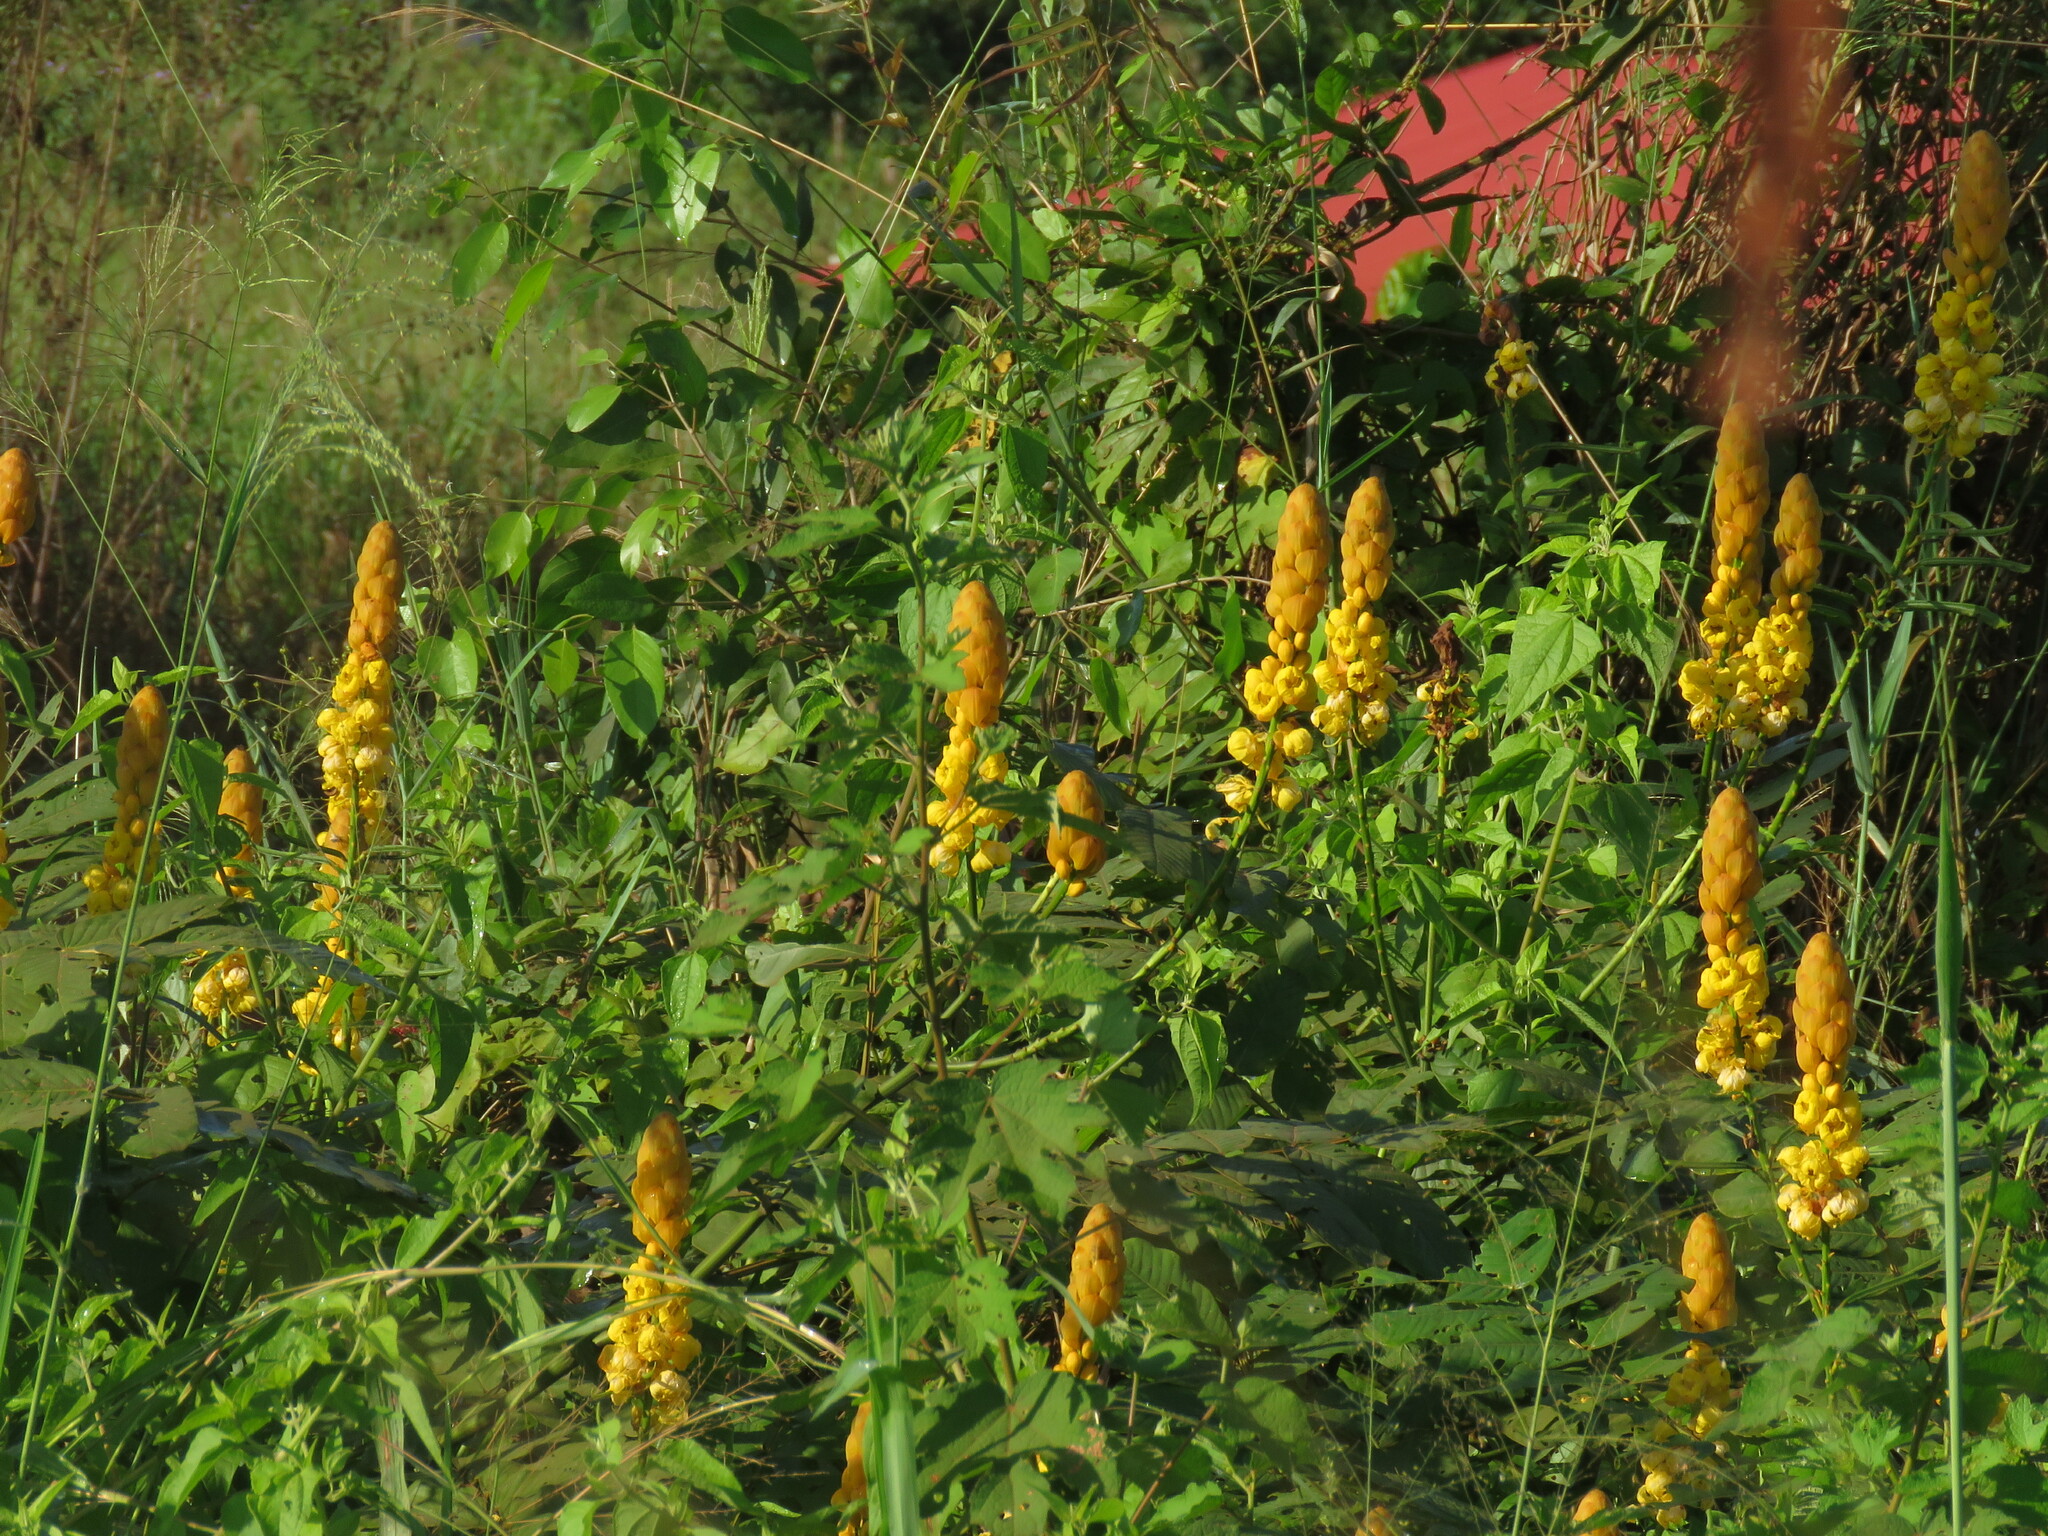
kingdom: Plantae
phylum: Tracheophyta
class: Magnoliopsida
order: Fabales
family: Fabaceae
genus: Senna
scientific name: Senna alata
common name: Emperor's candlesticks
